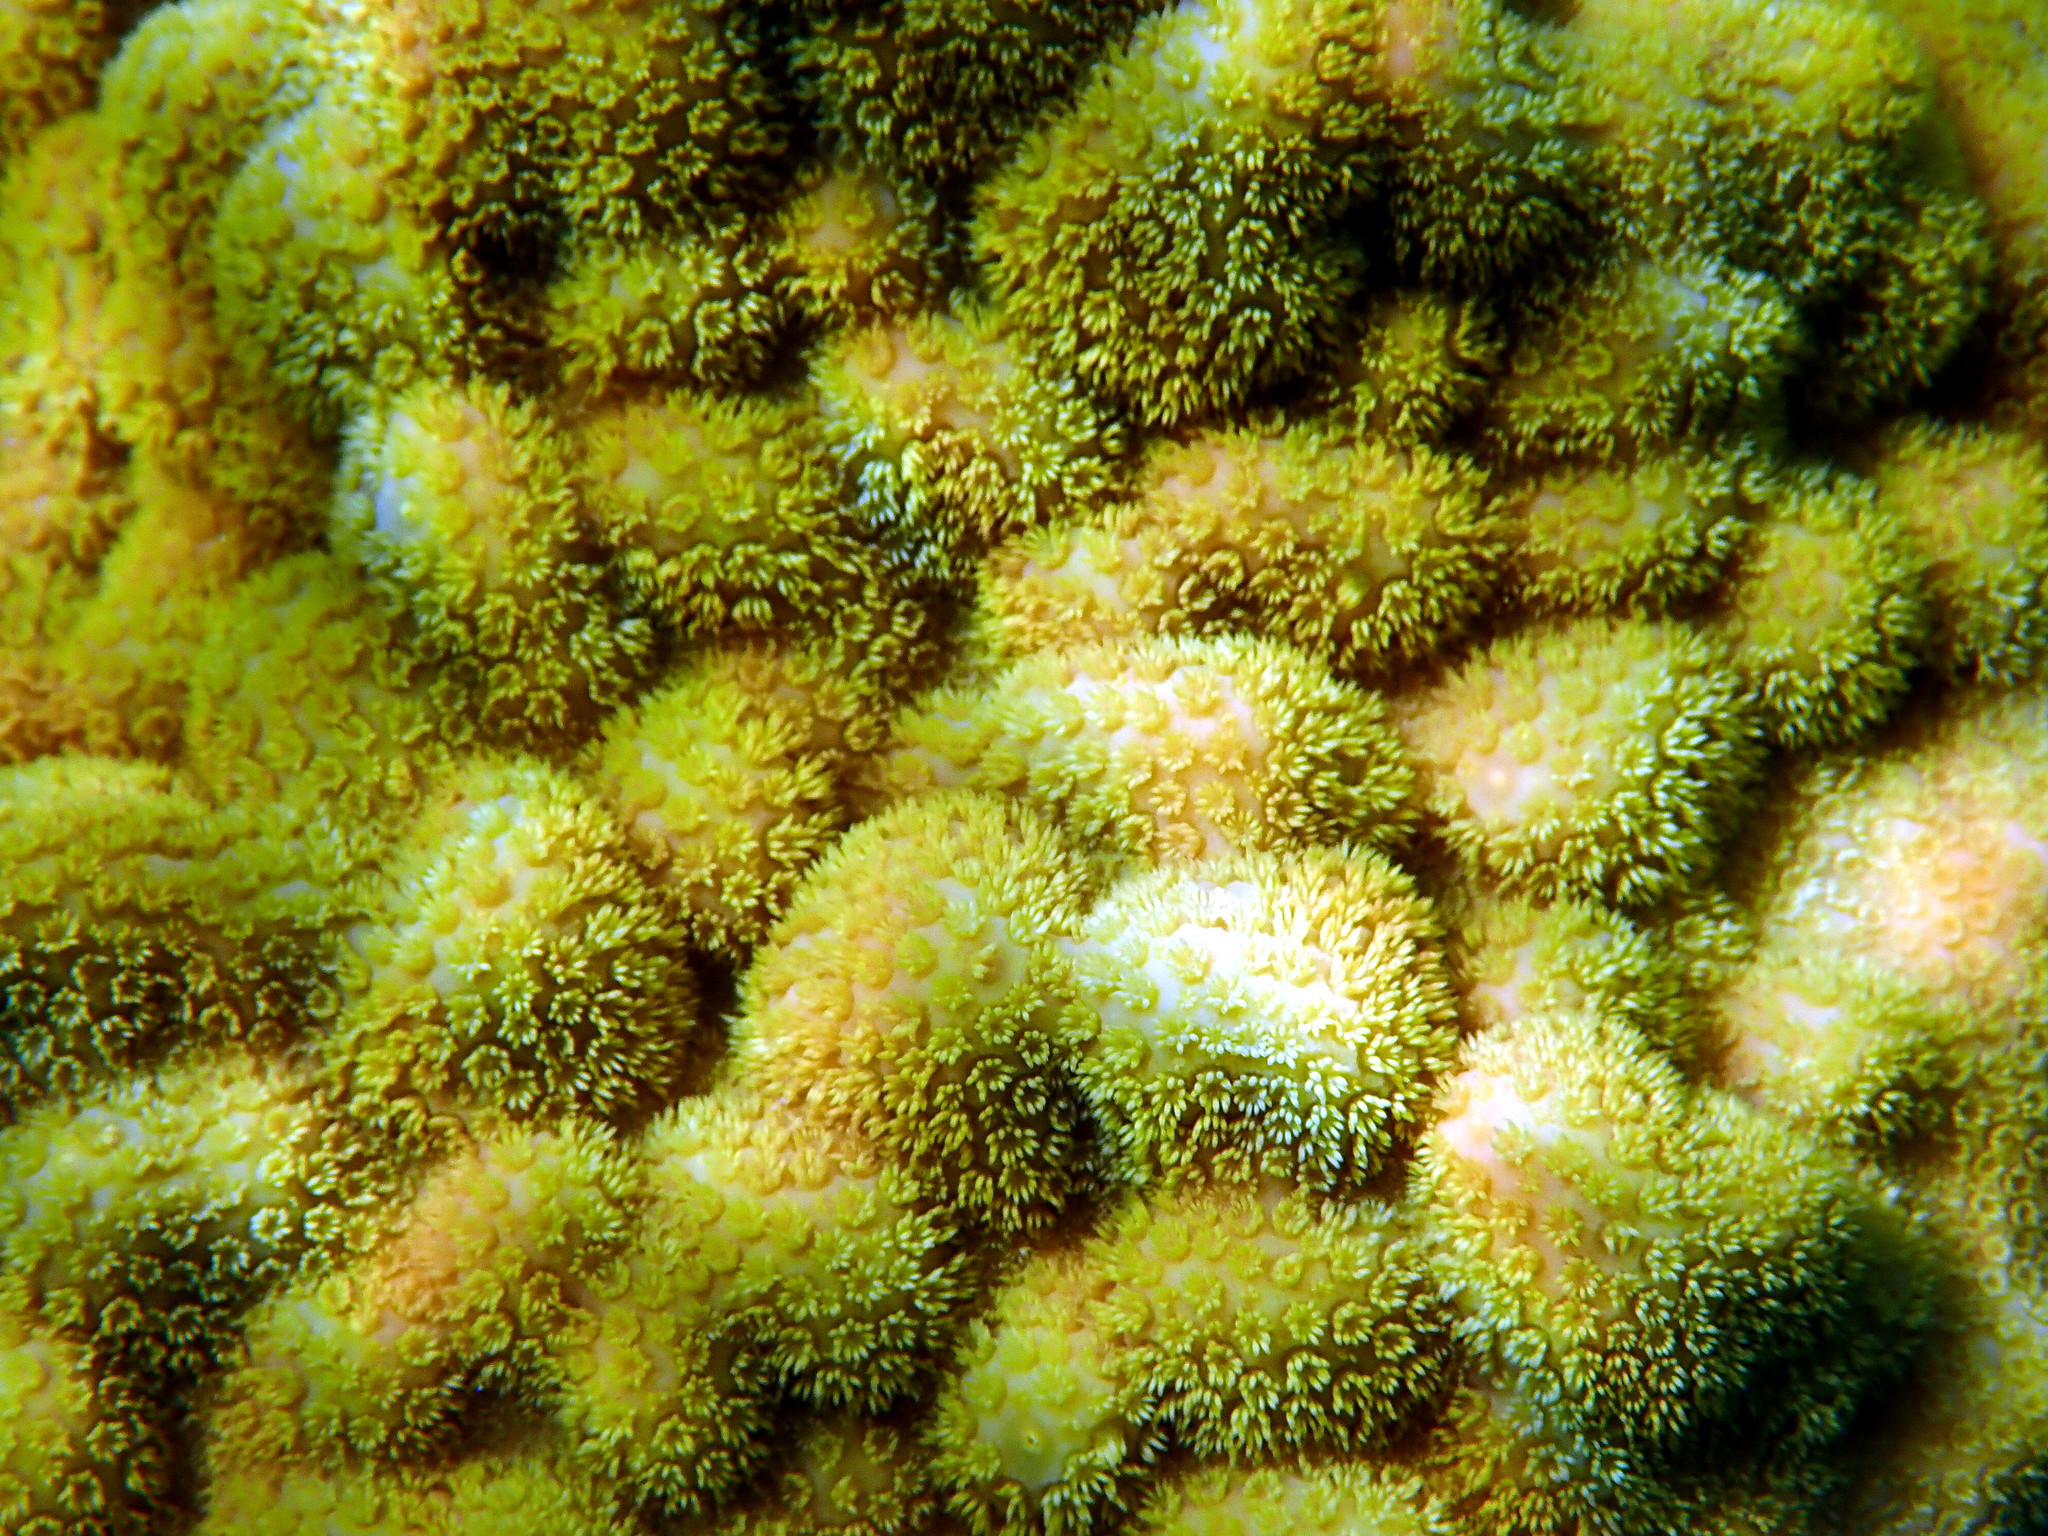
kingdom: Animalia
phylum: Cnidaria
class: Anthozoa
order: Scleractinia
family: Poritidae
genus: Porites
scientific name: Porites astreoides
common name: Mustard hill coral
